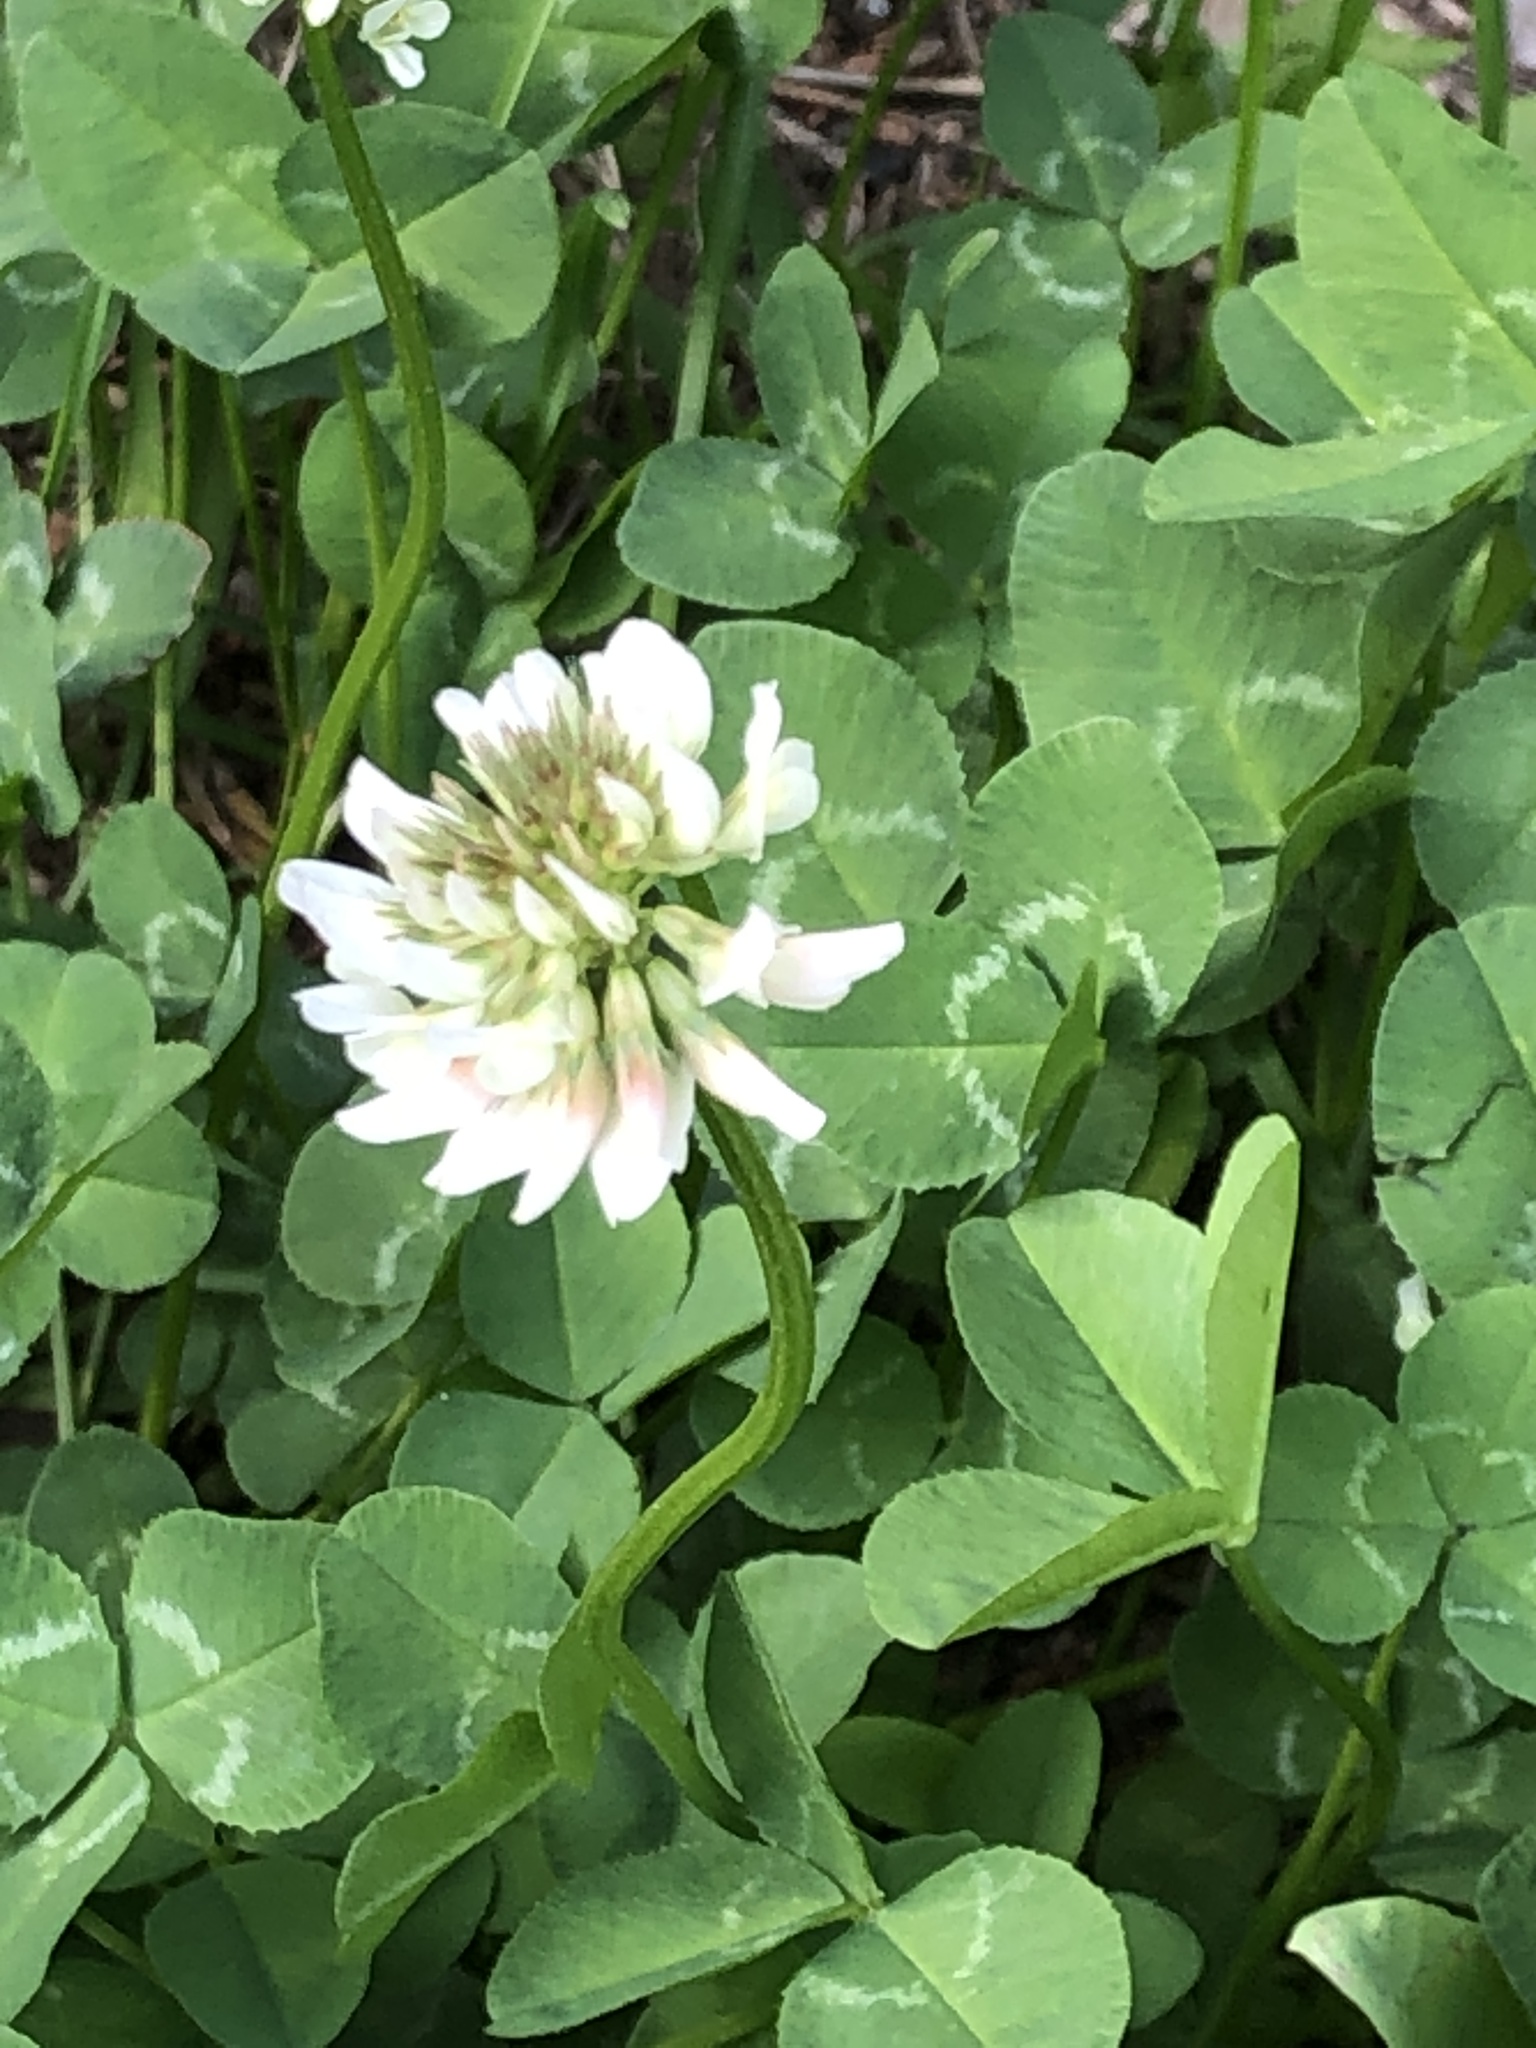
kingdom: Plantae
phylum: Tracheophyta
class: Magnoliopsida
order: Fabales
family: Fabaceae
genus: Trifolium
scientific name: Trifolium repens
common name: White clover
